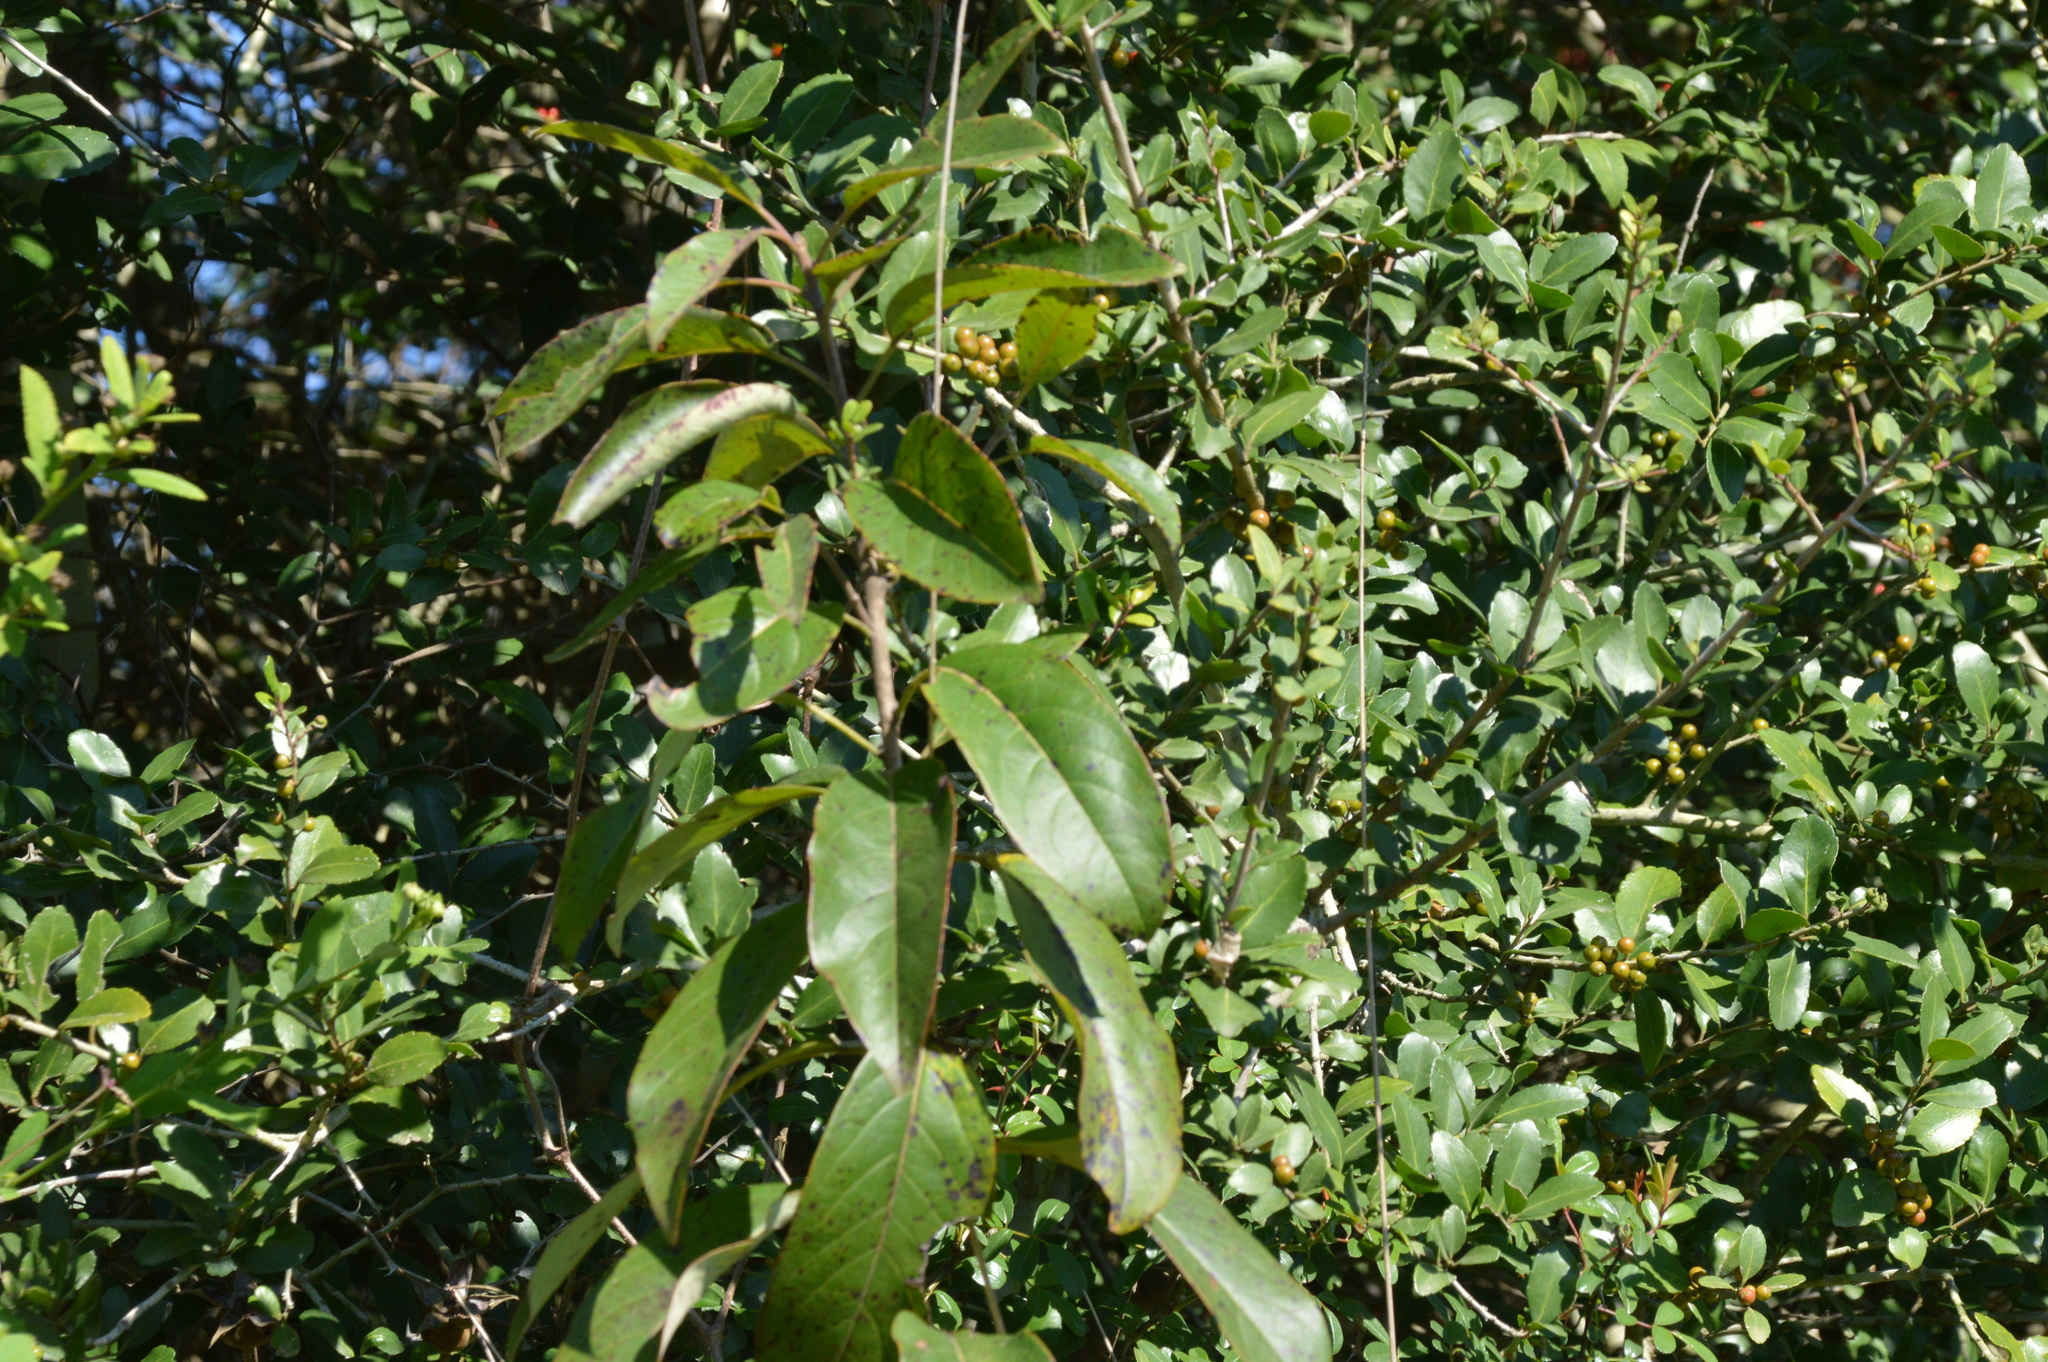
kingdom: Plantae
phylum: Tracheophyta
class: Magnoliopsida
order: Ericales
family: Ebenaceae
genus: Diospyros
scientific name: Diospyros virginiana
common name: Persimmon
